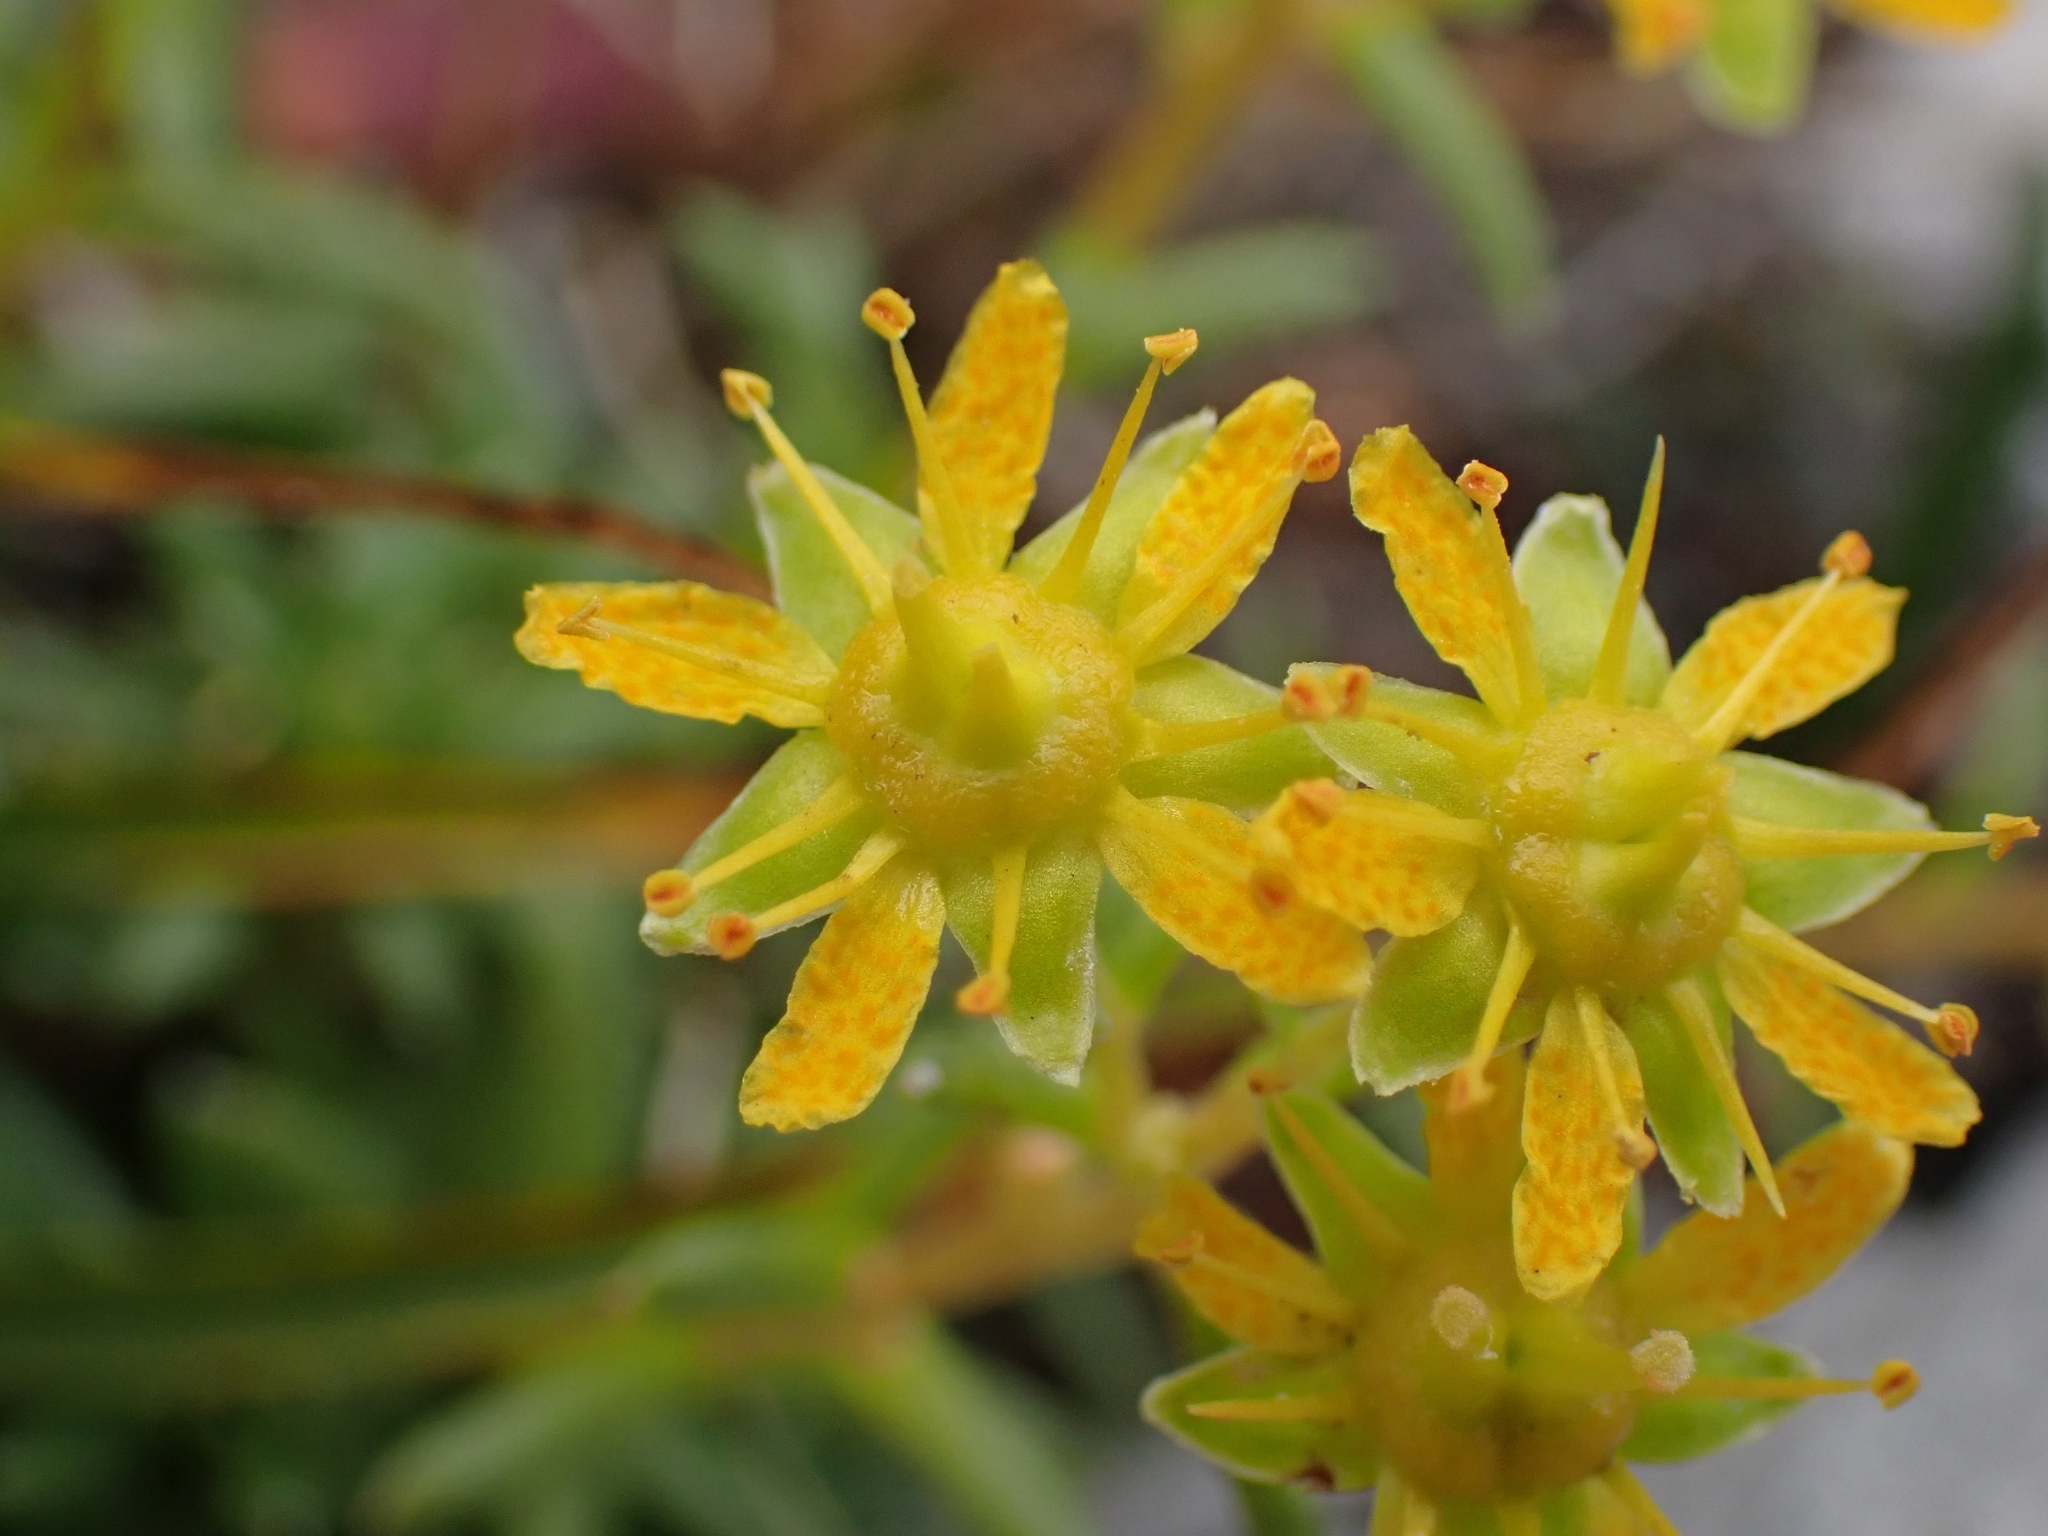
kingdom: Plantae
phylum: Tracheophyta
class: Magnoliopsida
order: Saxifragales
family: Saxifragaceae
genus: Saxifraga
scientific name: Saxifraga aizoides
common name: Yellow mountain saxifrage
